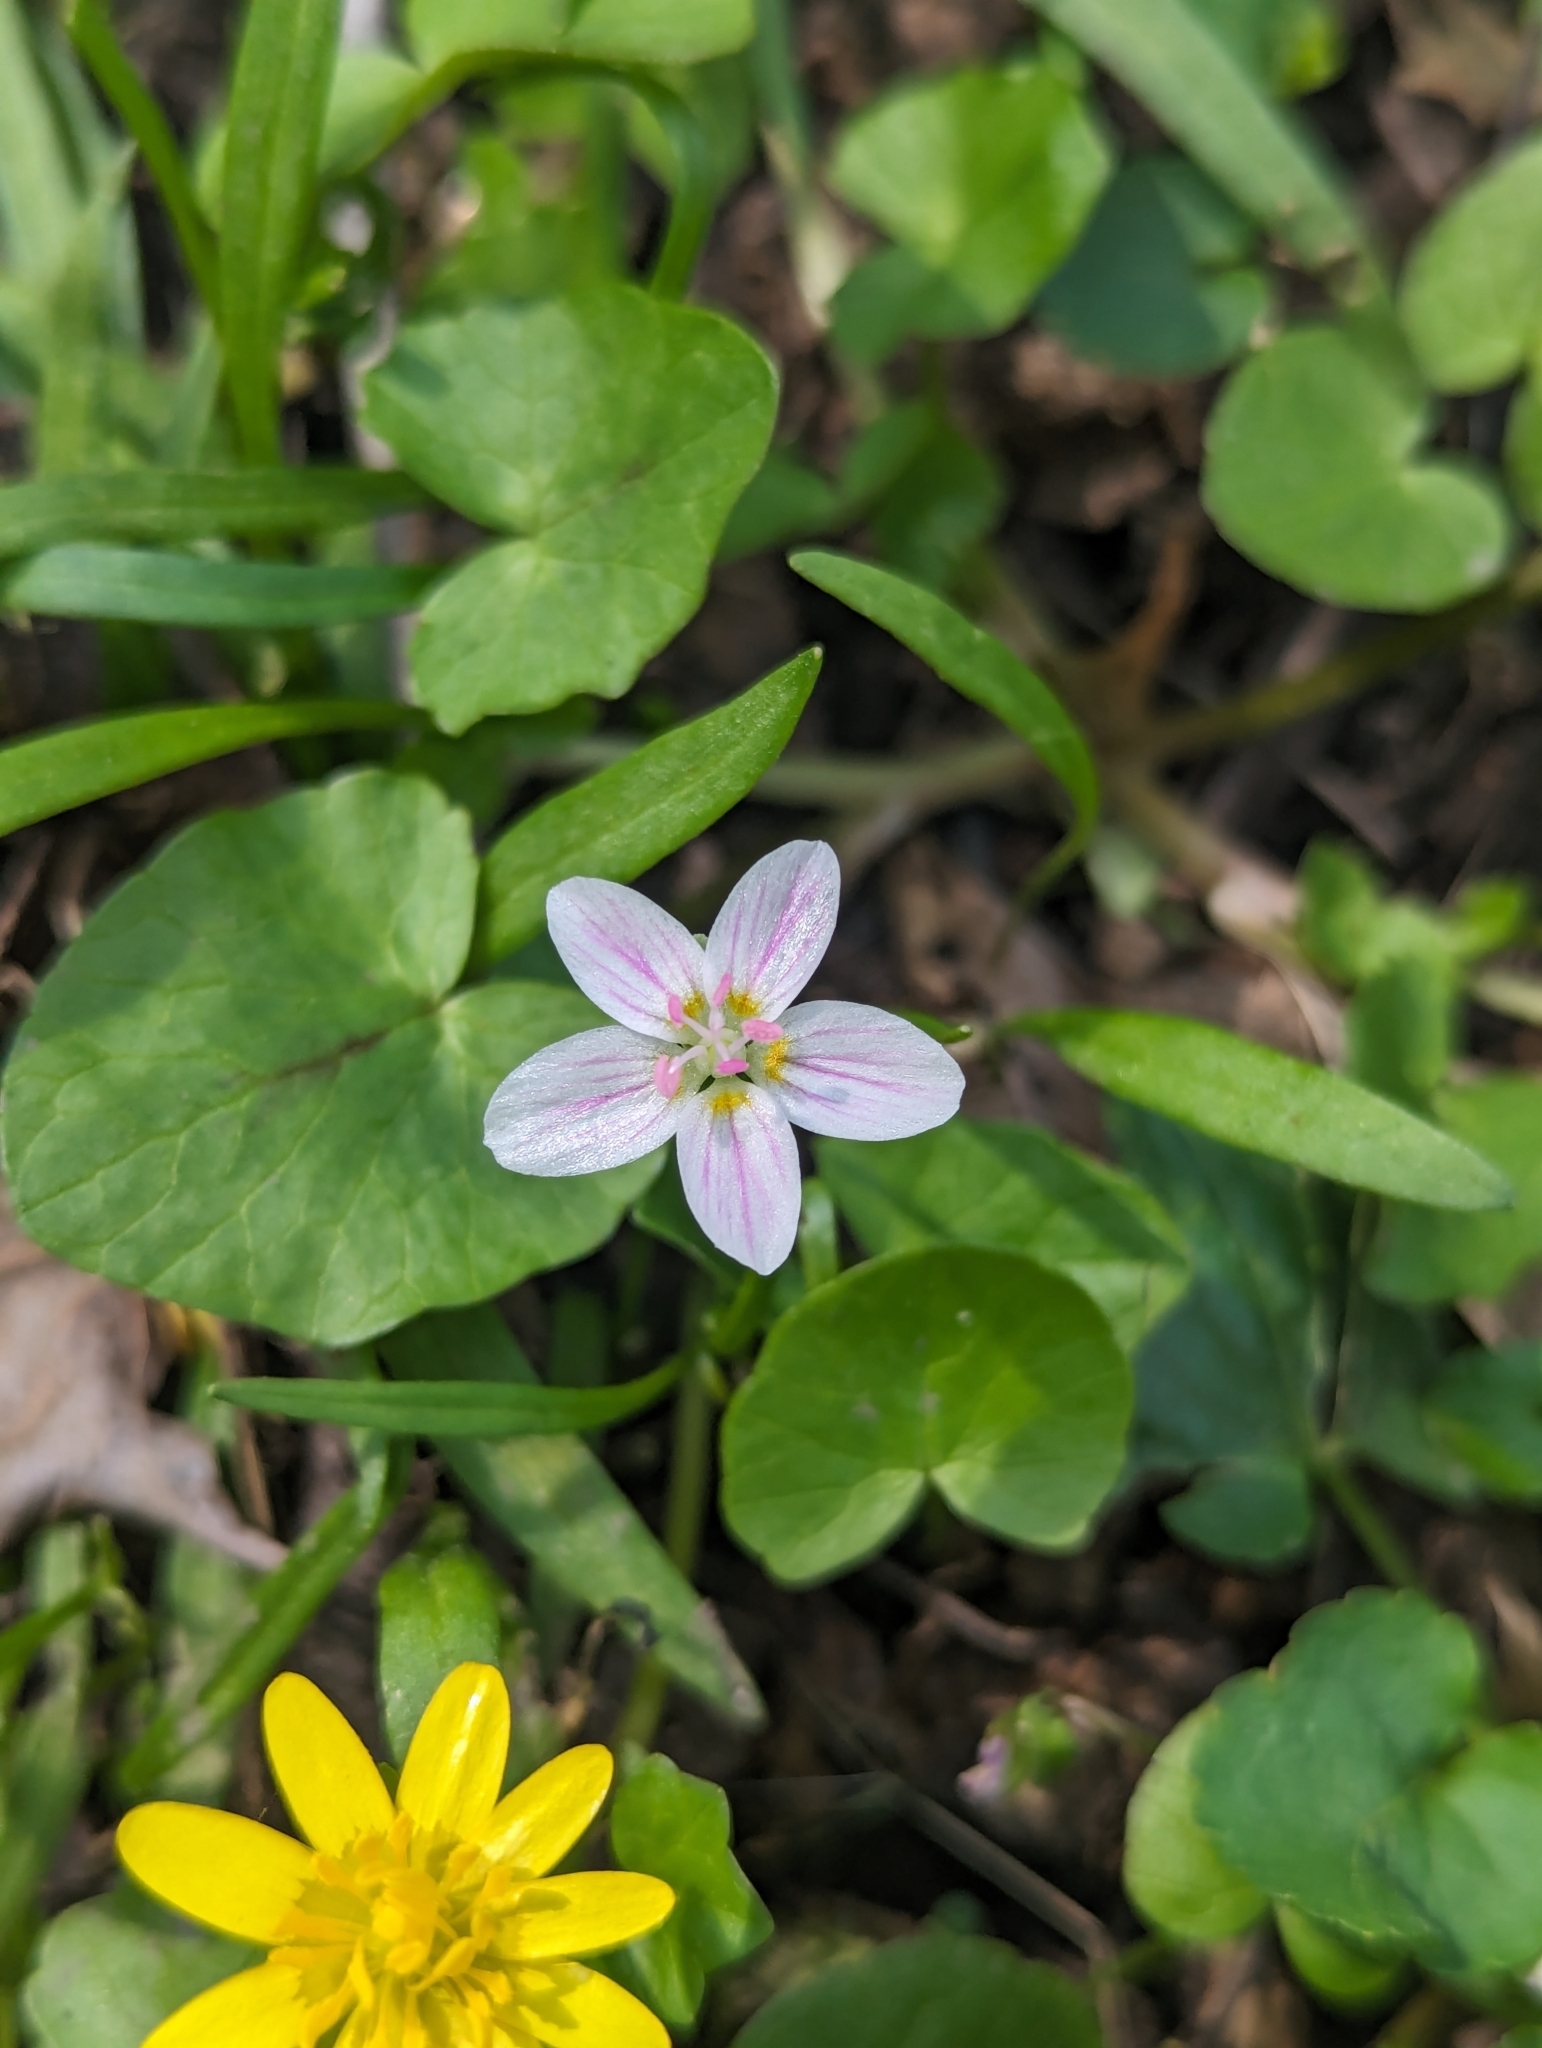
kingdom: Plantae
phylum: Tracheophyta
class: Magnoliopsida
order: Caryophyllales
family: Montiaceae
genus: Claytonia
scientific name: Claytonia virginica
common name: Virginia springbeauty
